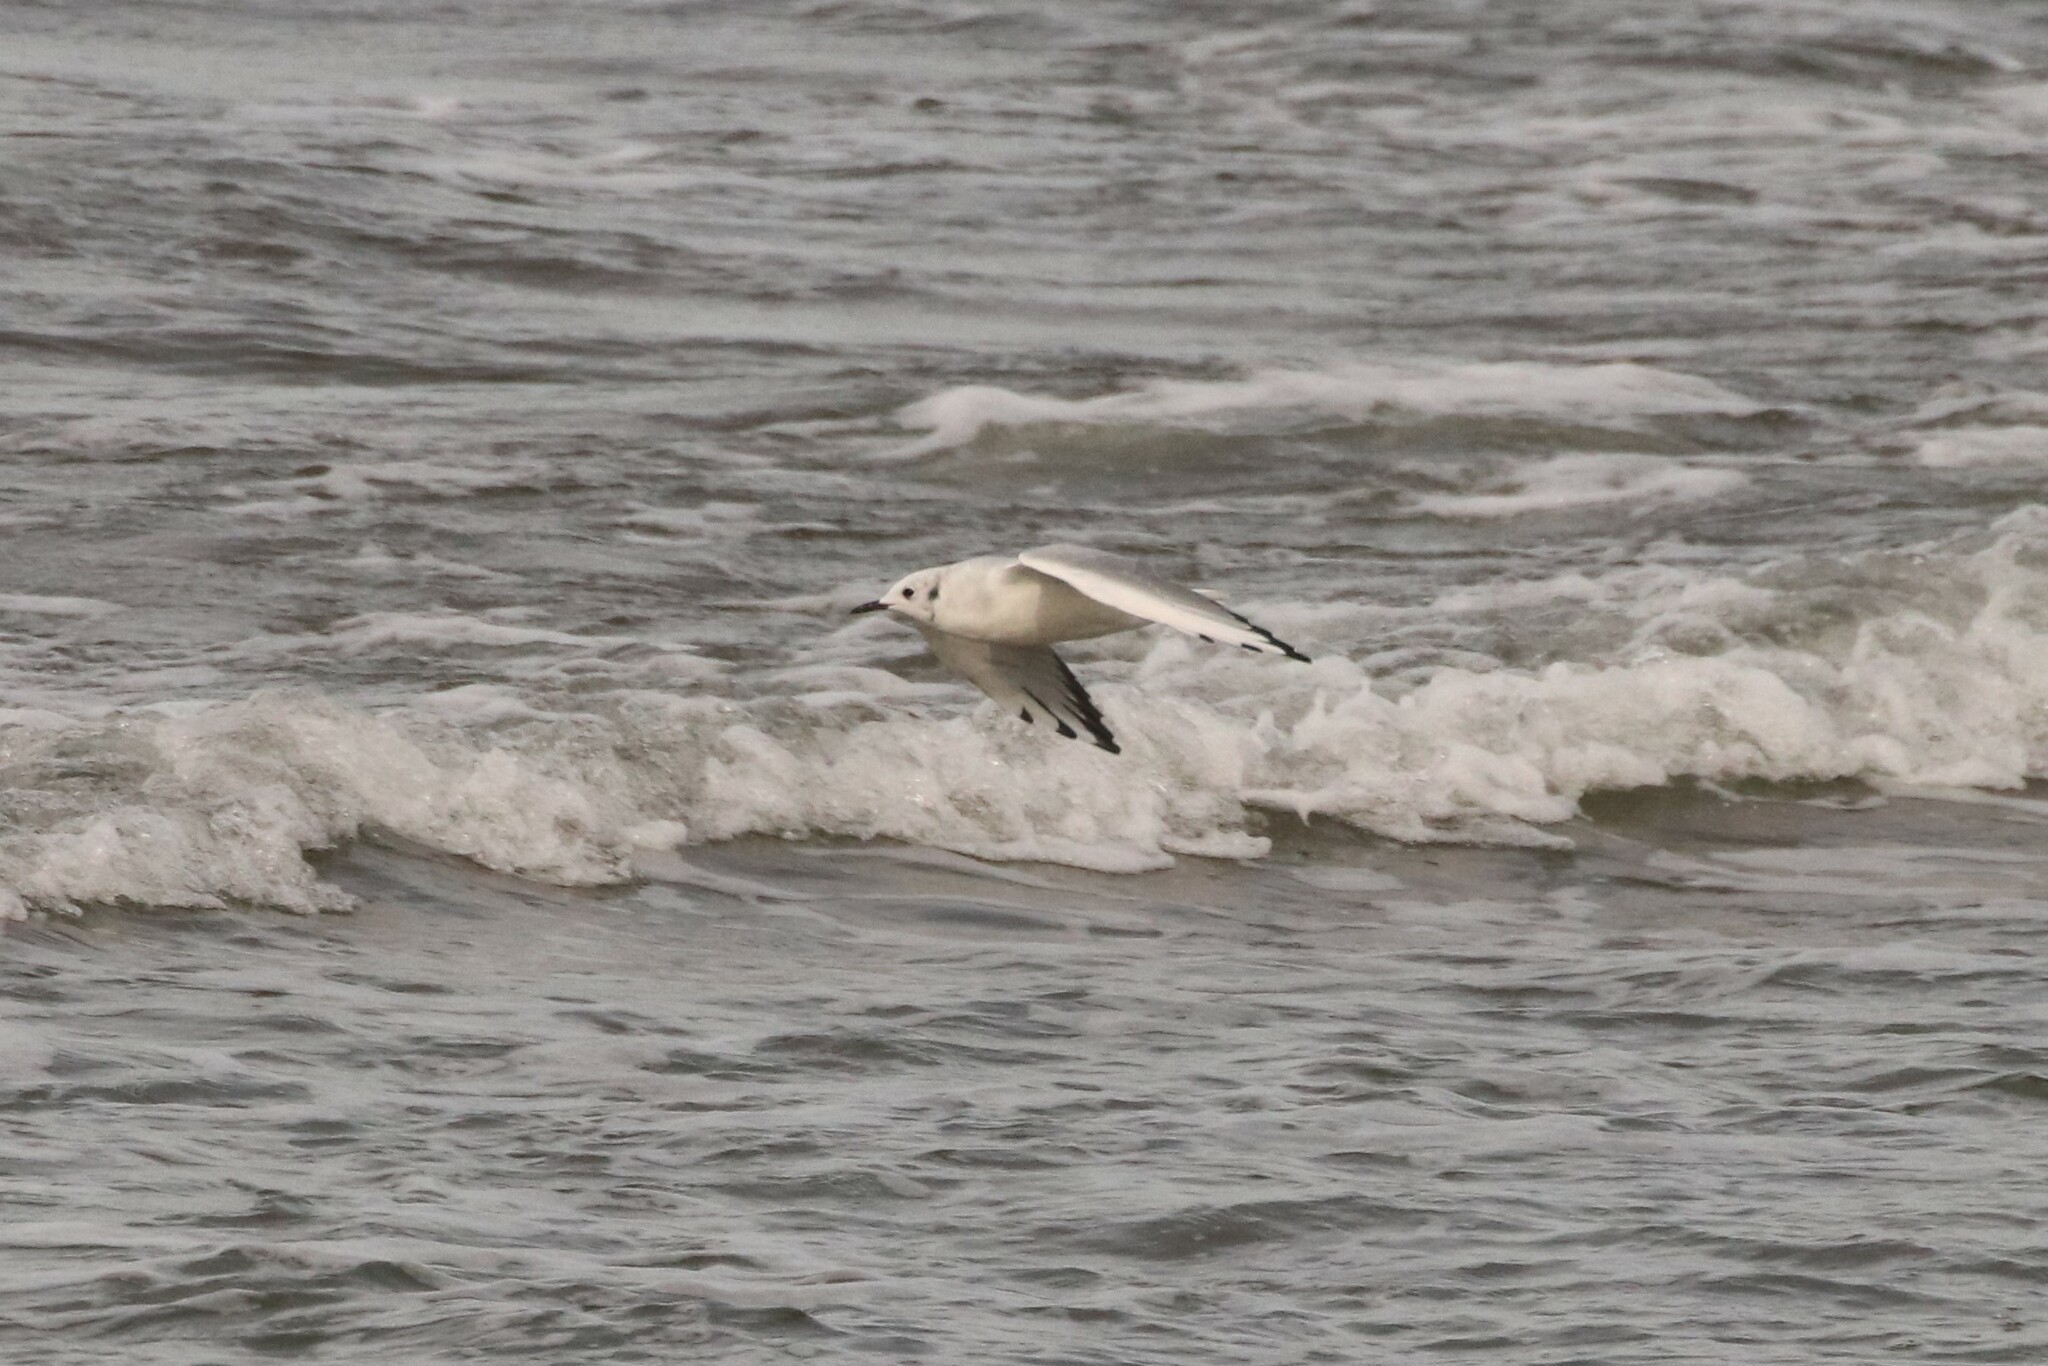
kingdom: Animalia
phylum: Chordata
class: Aves
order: Charadriiformes
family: Laridae
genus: Chroicocephalus
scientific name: Chroicocephalus philadelphia
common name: Bonaparte's gull
